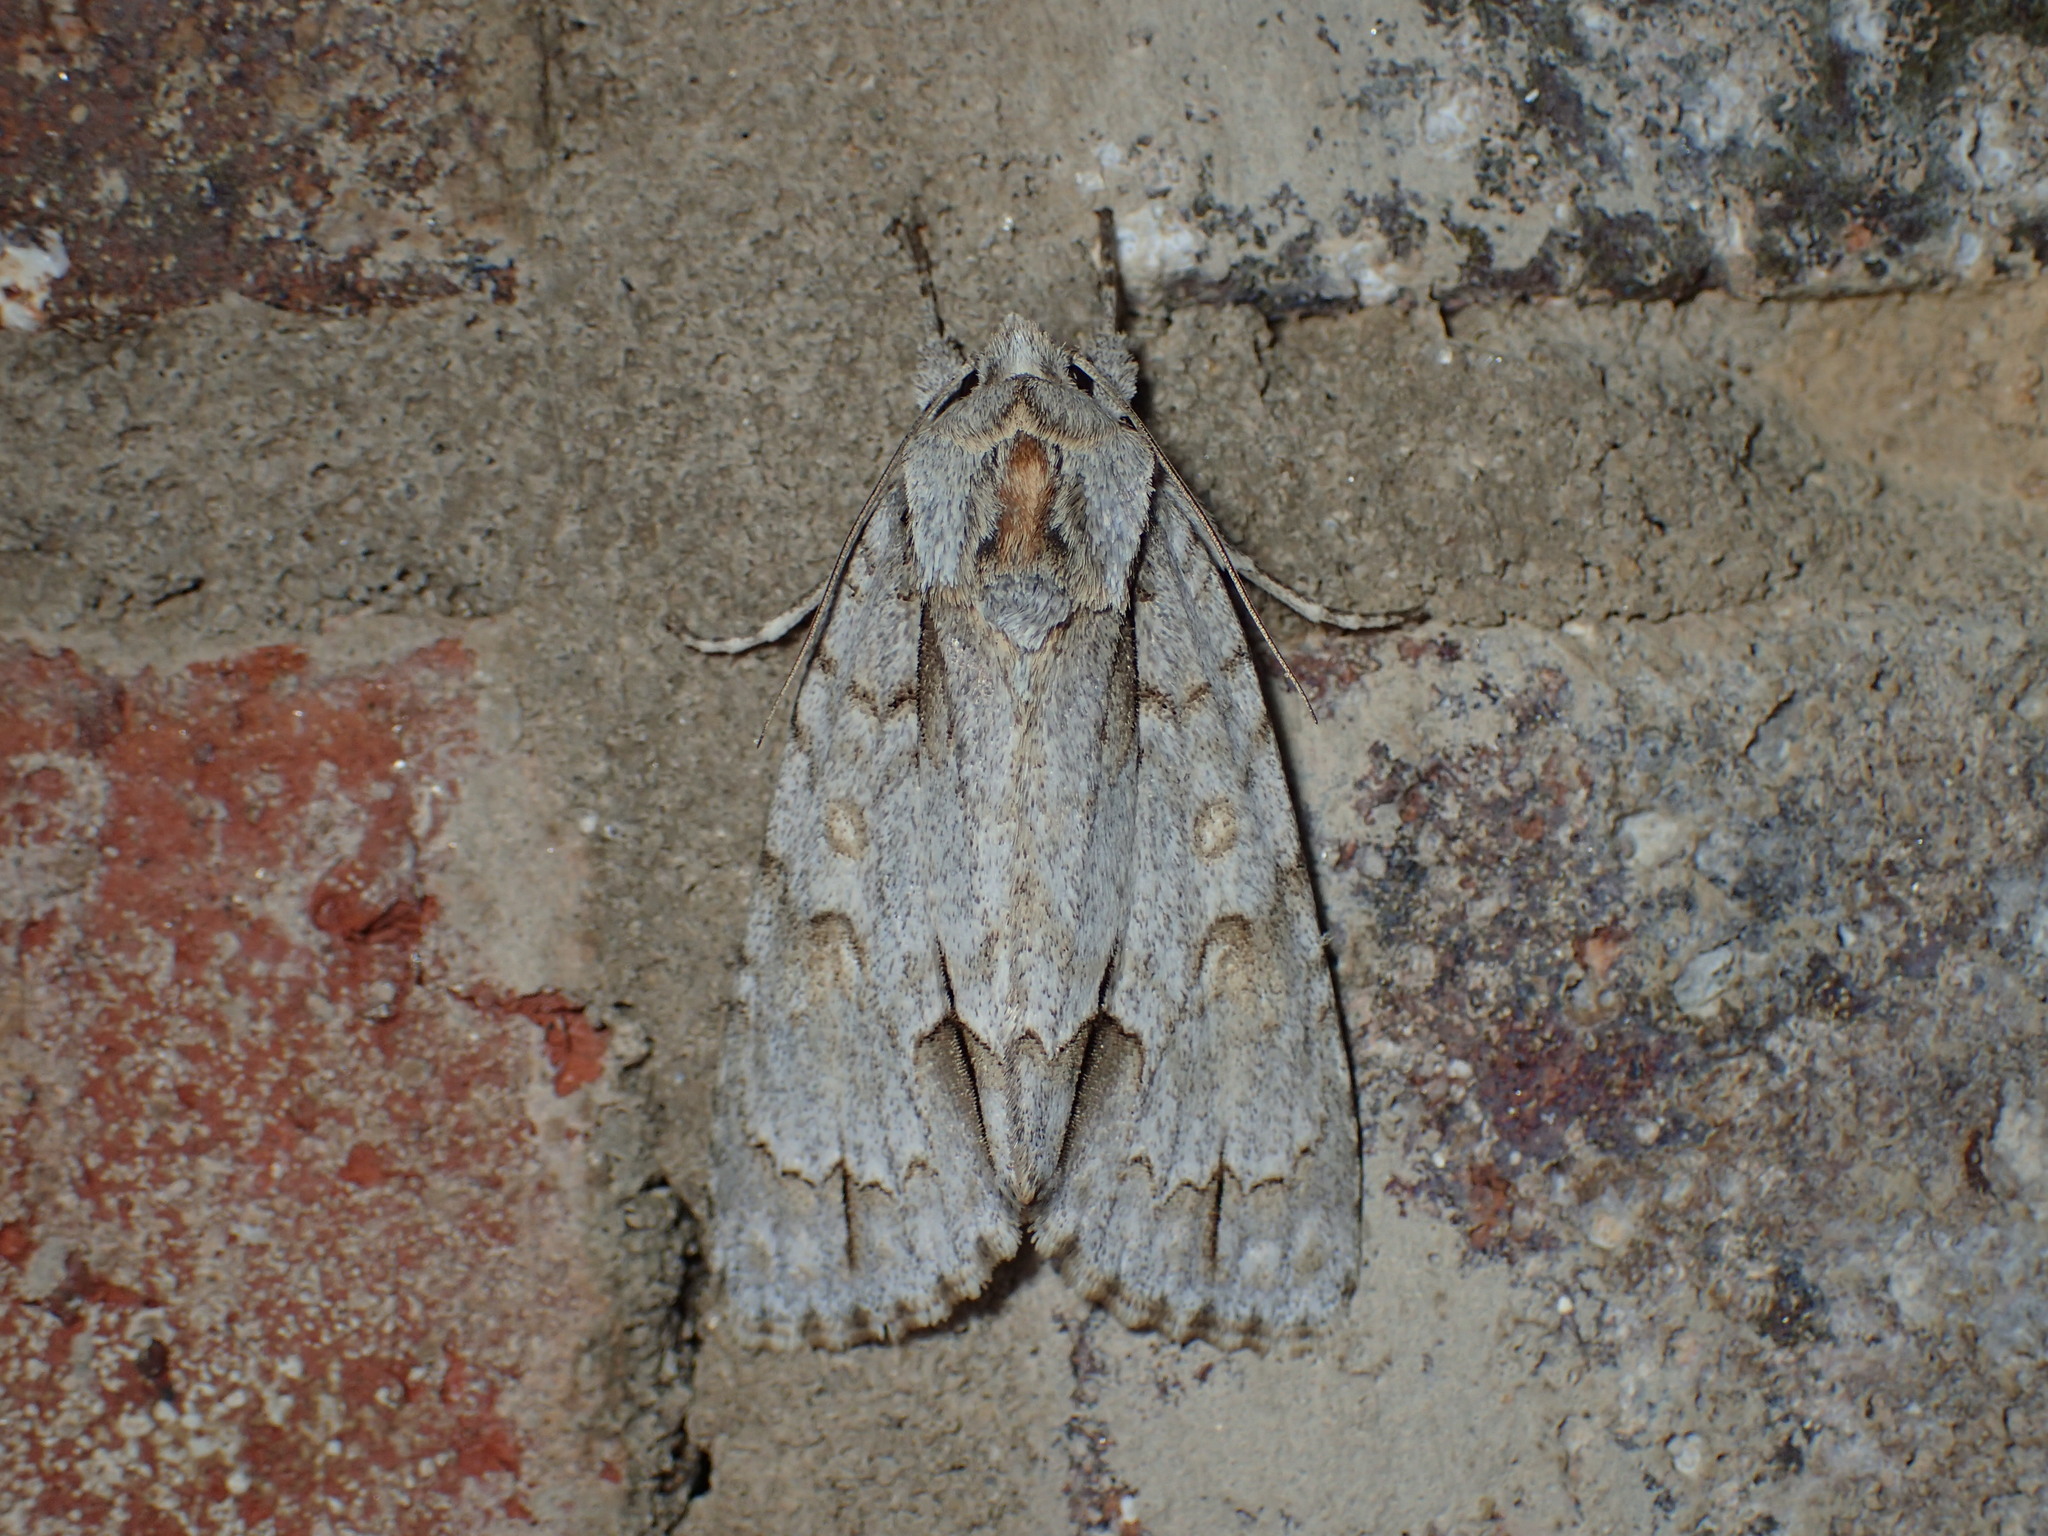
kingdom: Animalia
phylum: Arthropoda
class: Insecta
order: Lepidoptera
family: Noctuidae
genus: Acronicta
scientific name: Acronicta morula
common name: Ochre dagger
